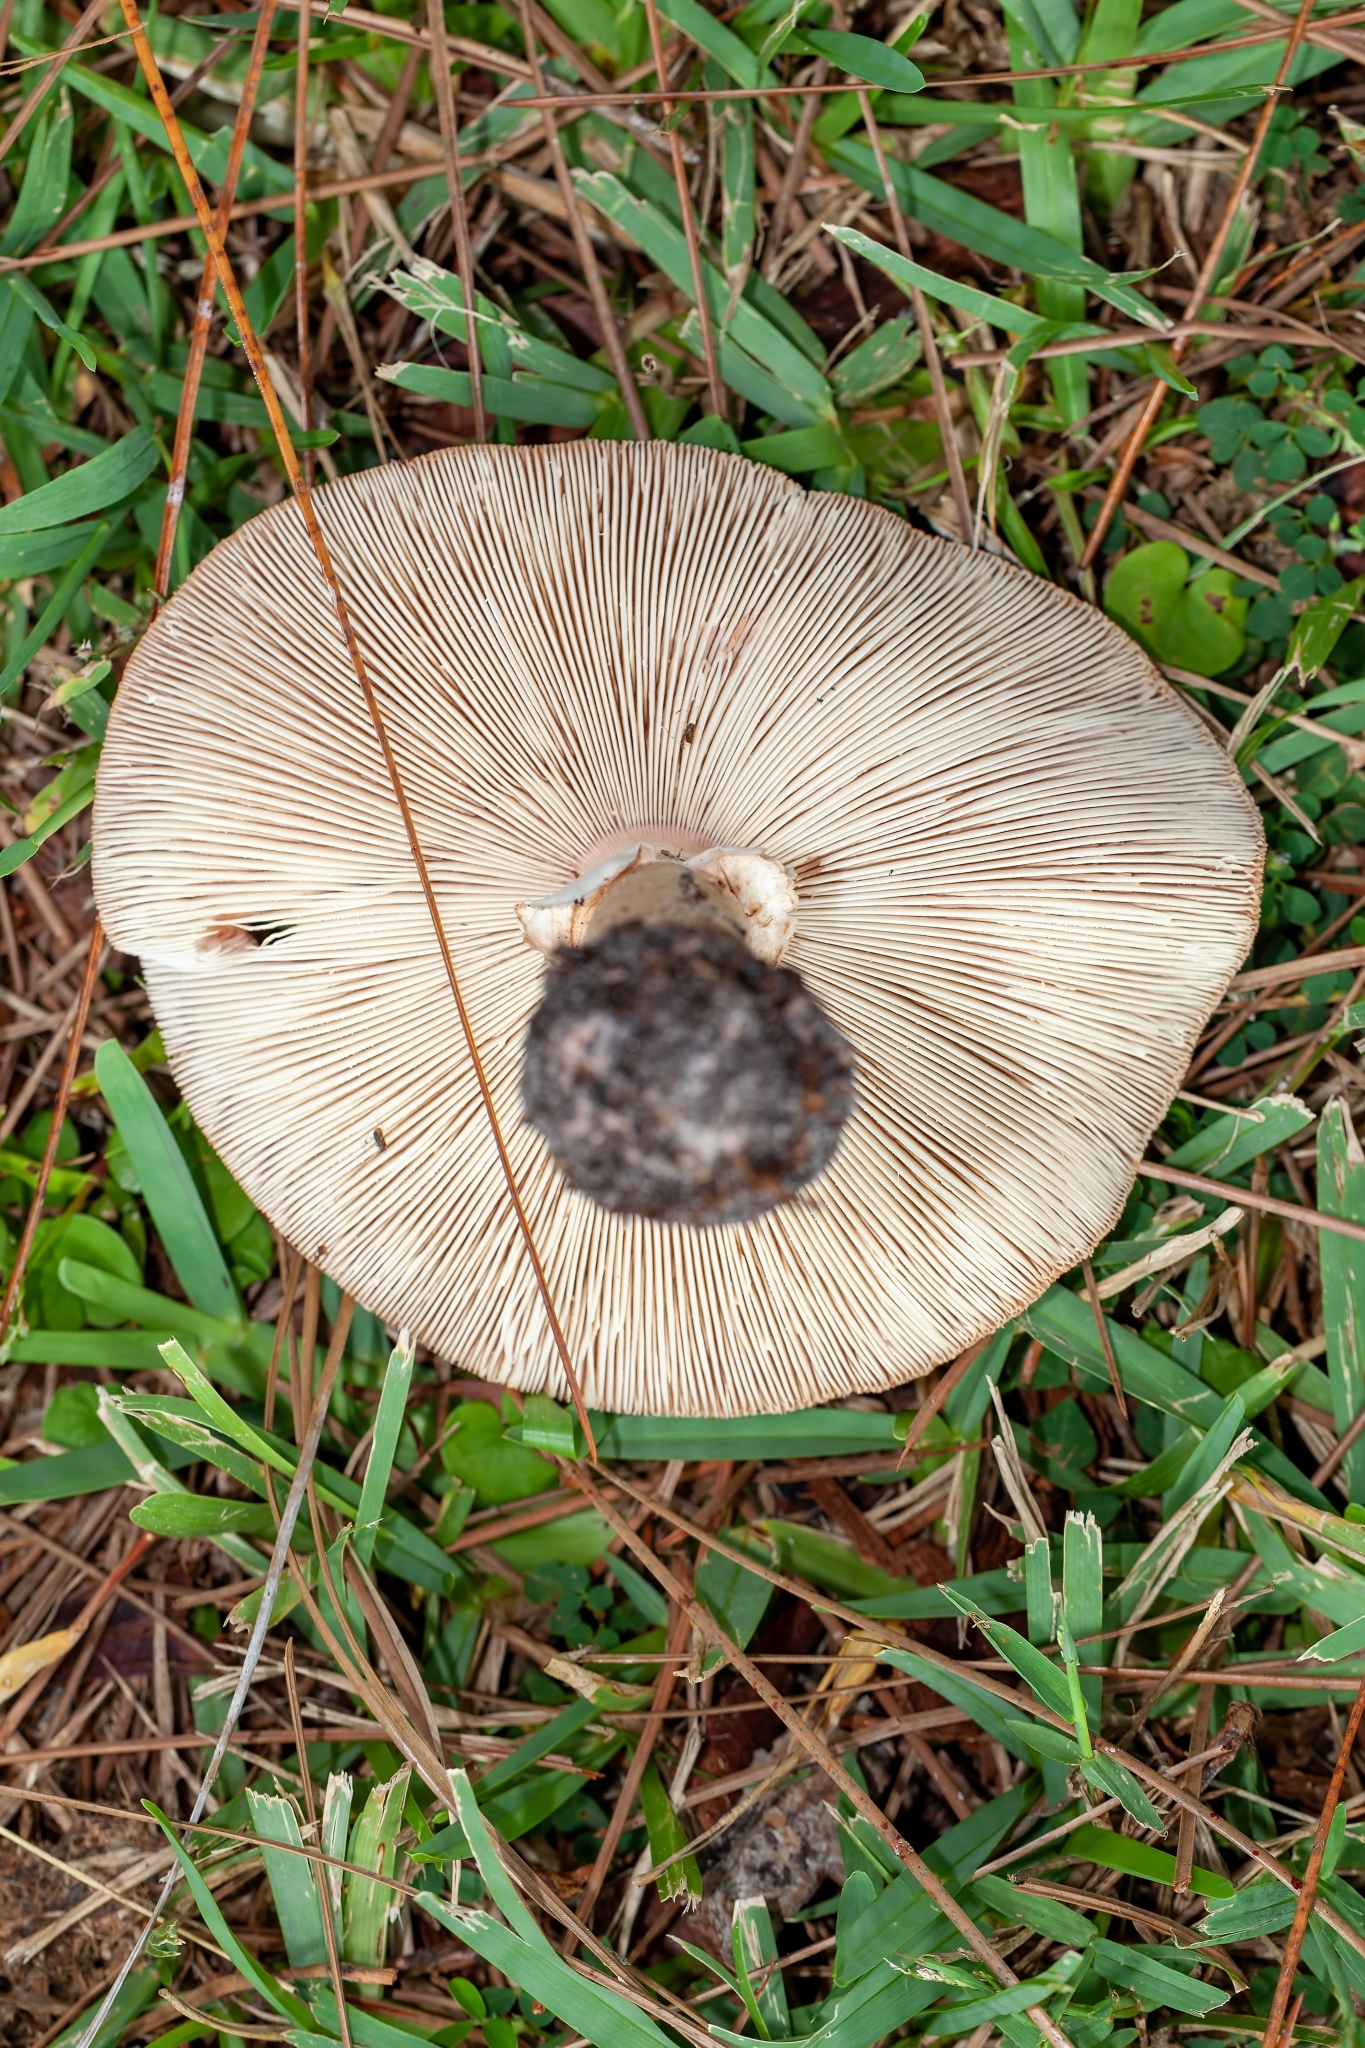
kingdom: Fungi
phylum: Basidiomycota
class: Agaricomycetes
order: Agaricales
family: Amanitaceae
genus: Amanita
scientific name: Amanita rubescens
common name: Blusher
